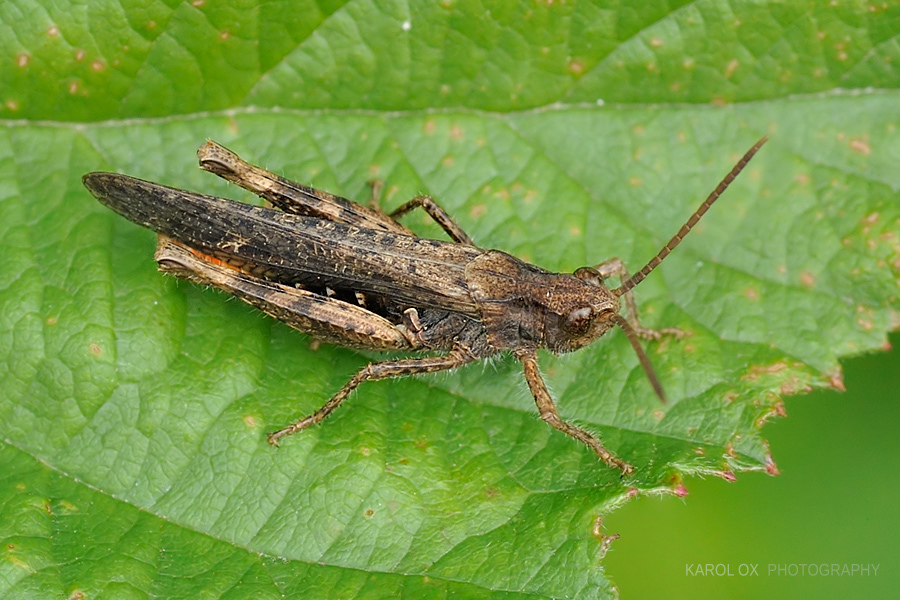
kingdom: Animalia
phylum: Arthropoda
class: Insecta
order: Orthoptera
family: Acrididae
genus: Chorthippus
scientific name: Chorthippus brunneus
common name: Field grasshopper
